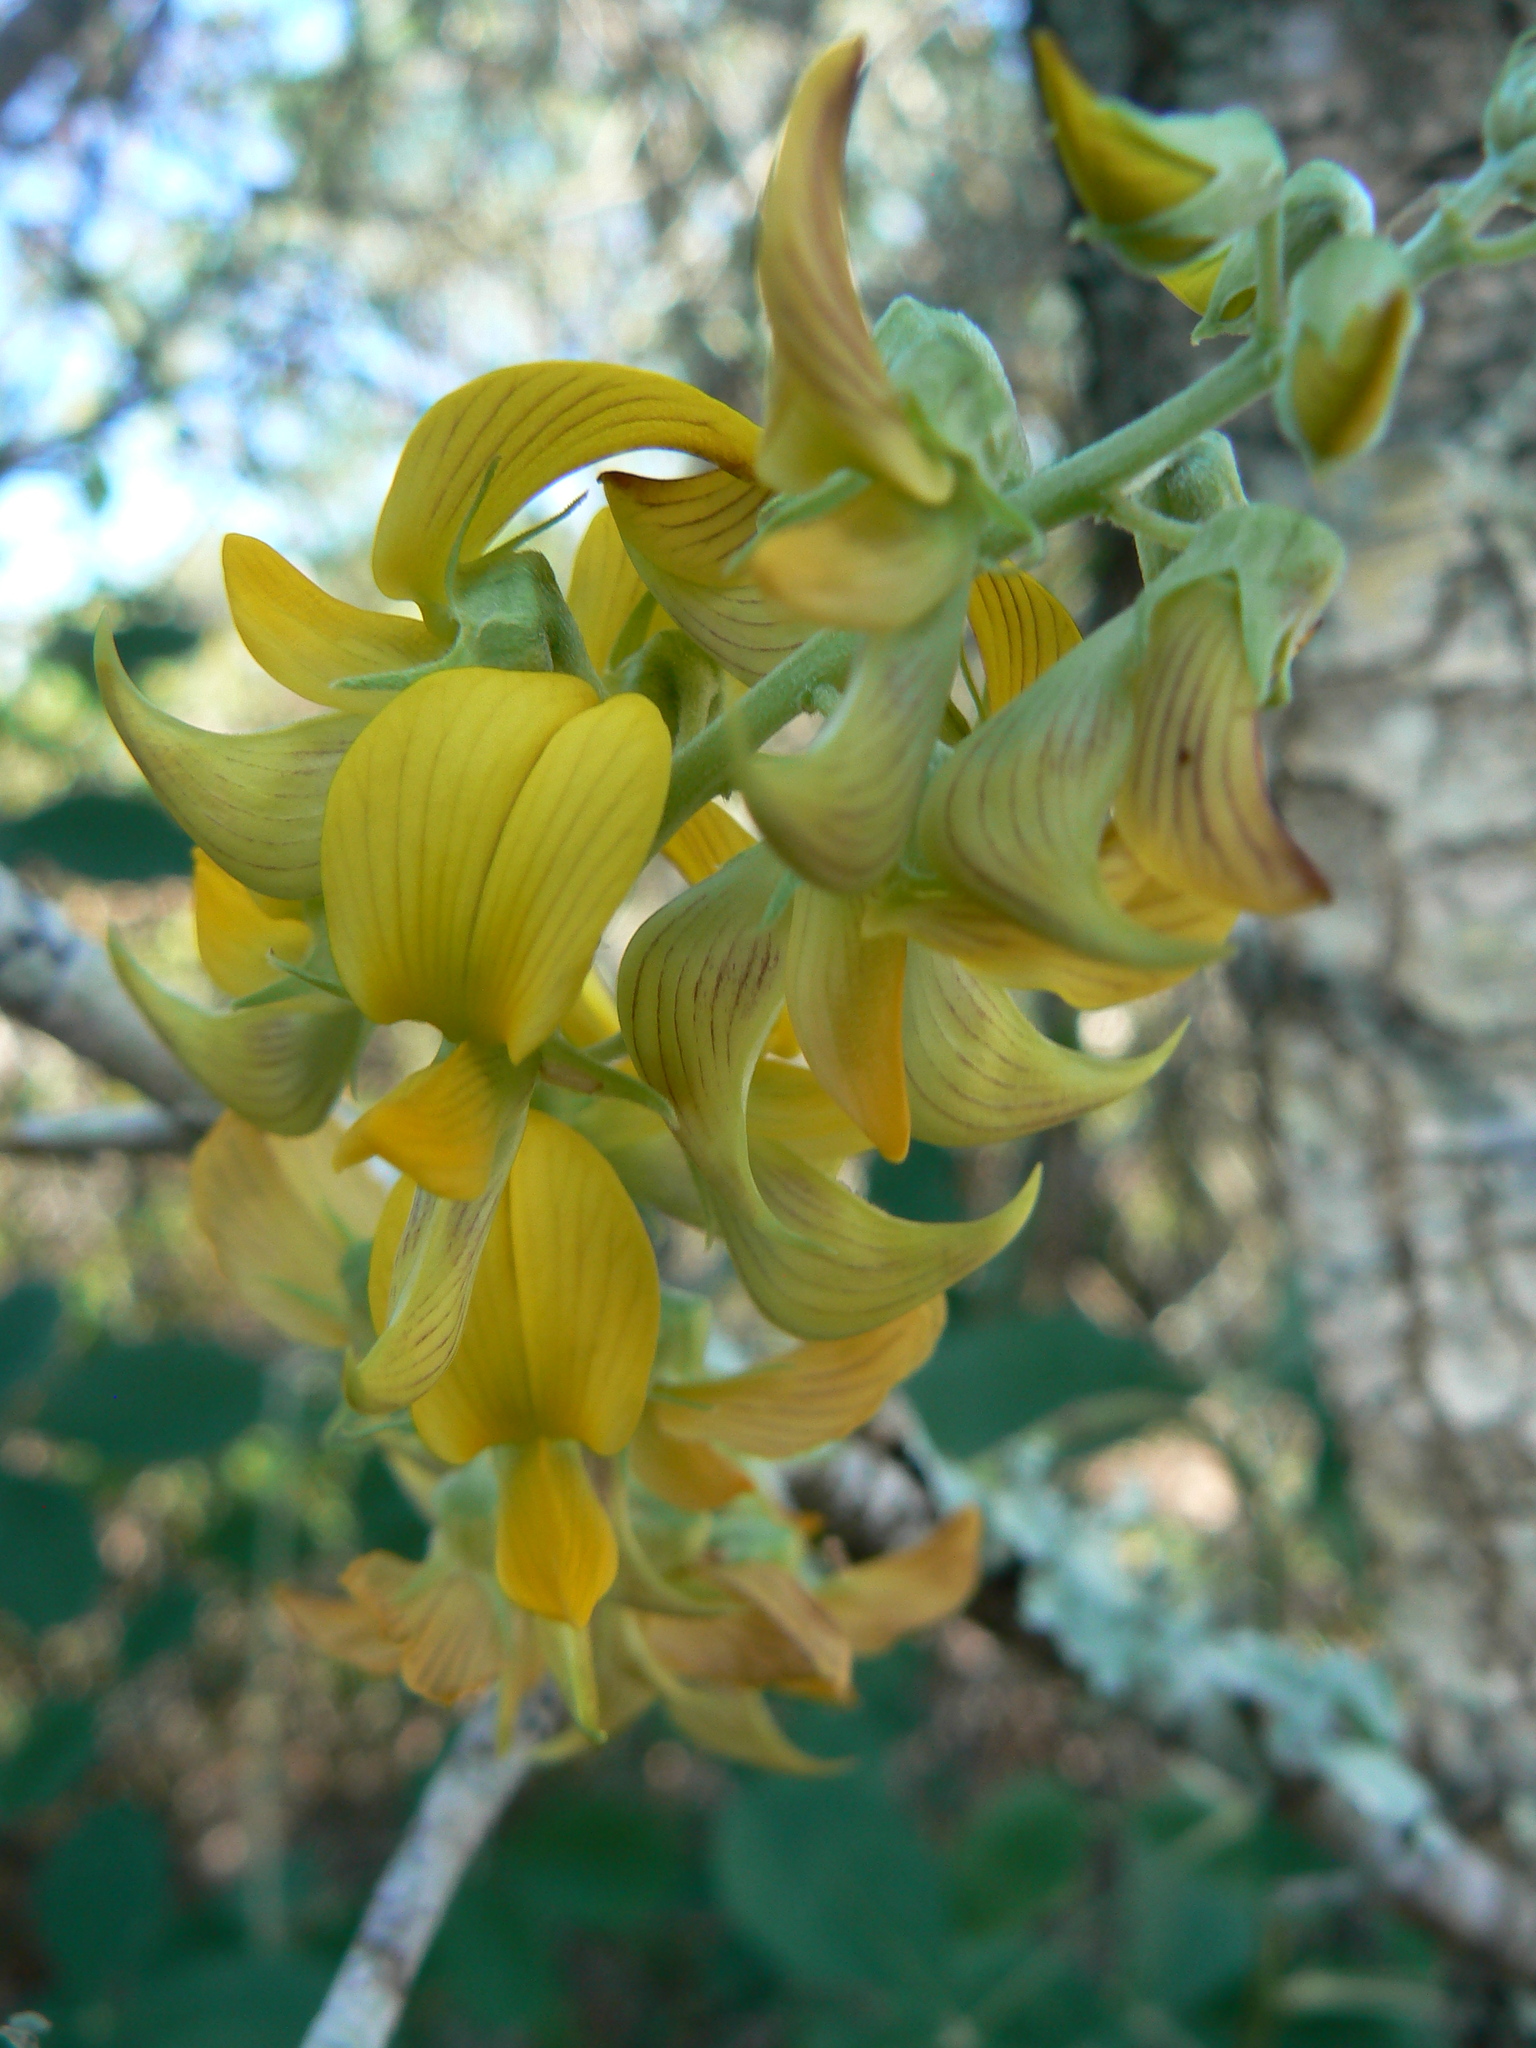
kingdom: Plantae
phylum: Tracheophyta
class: Magnoliopsida
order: Fabales
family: Fabaceae
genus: Crotalaria
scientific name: Crotalaria pallida
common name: Smooth rattlebox
